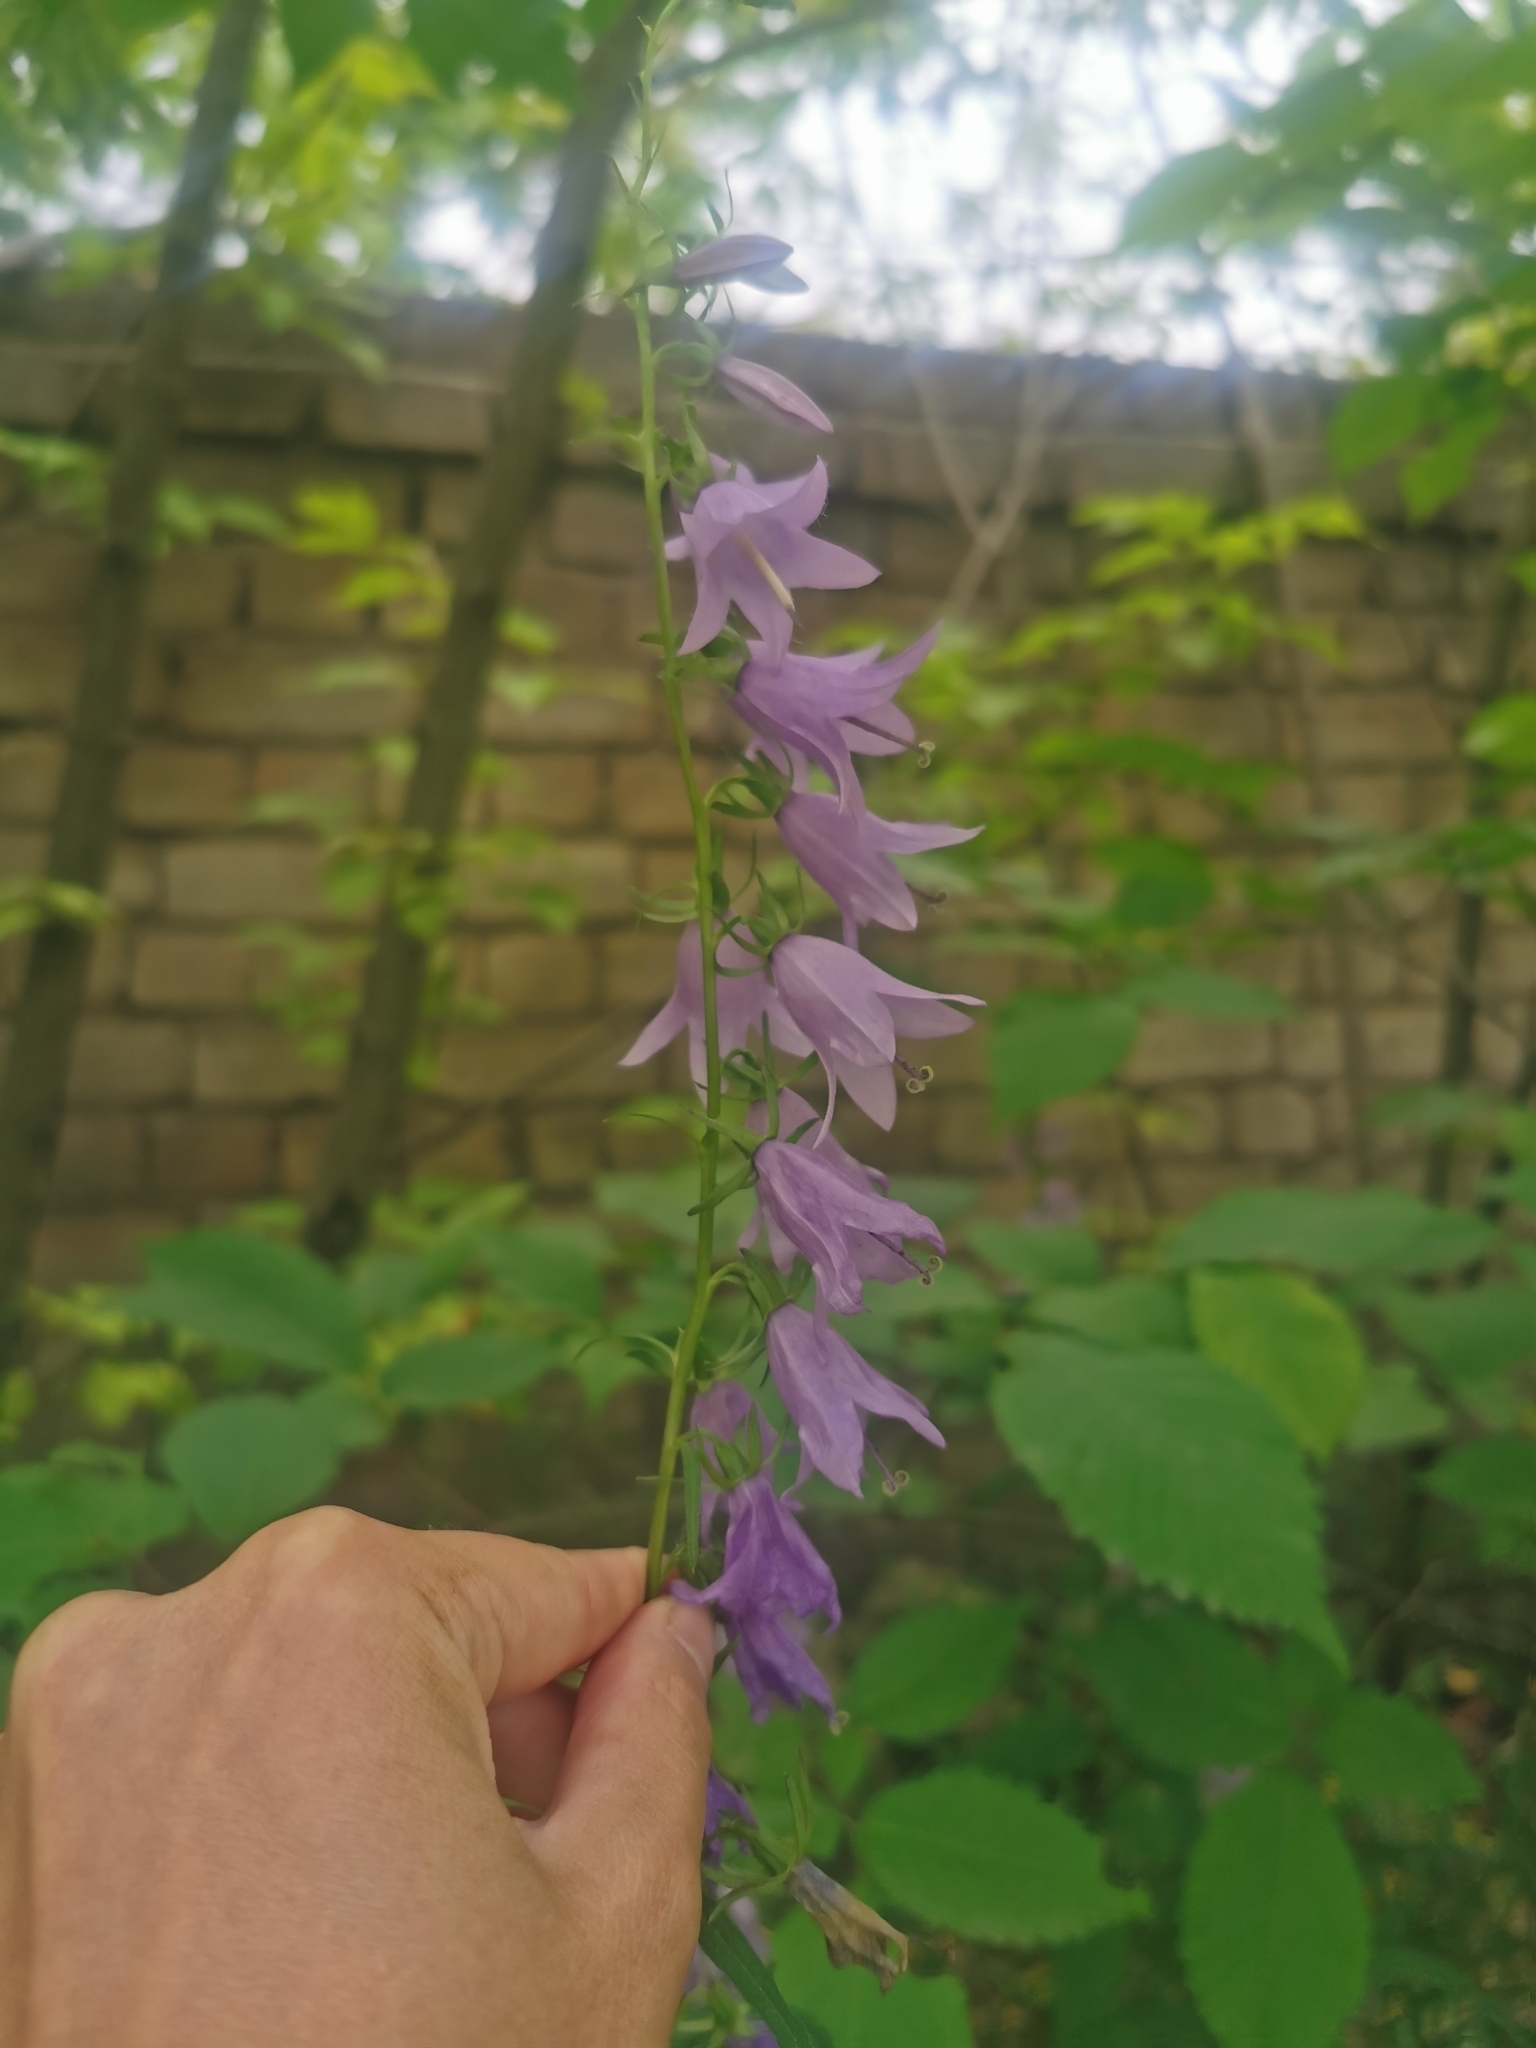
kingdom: Plantae
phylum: Tracheophyta
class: Magnoliopsida
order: Asterales
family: Campanulaceae
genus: Campanula
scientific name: Campanula rapunculoides
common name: Creeping bellflower
